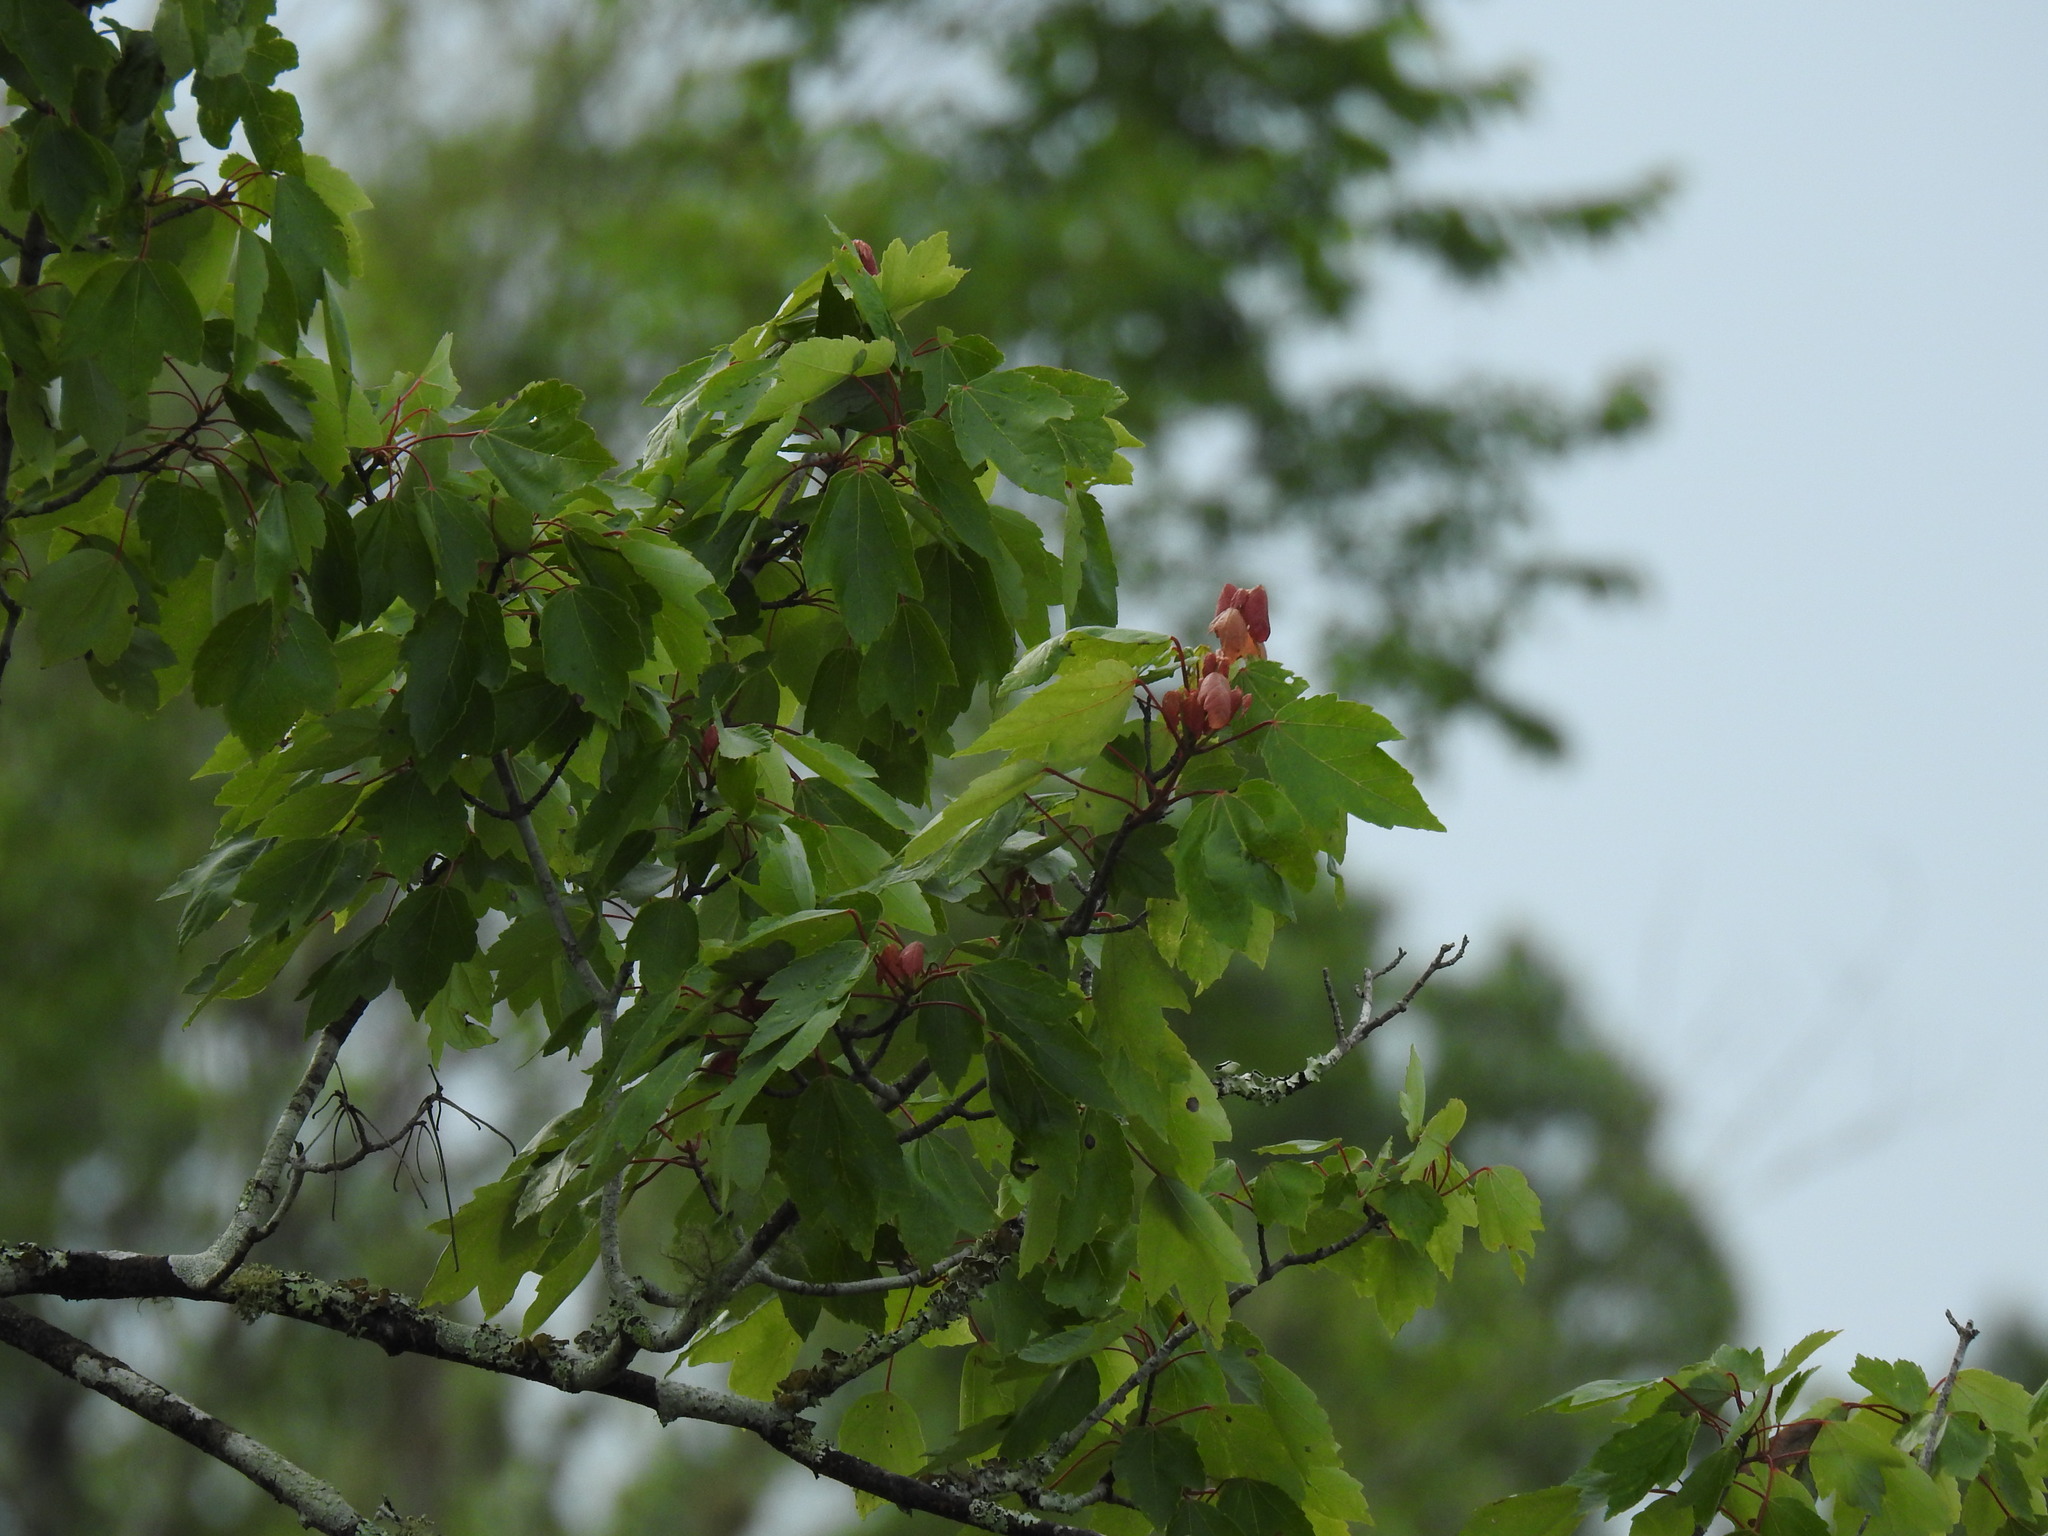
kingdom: Plantae
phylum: Tracheophyta
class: Magnoliopsida
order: Sapindales
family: Sapindaceae
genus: Acer
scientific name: Acer rubrum
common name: Red maple
